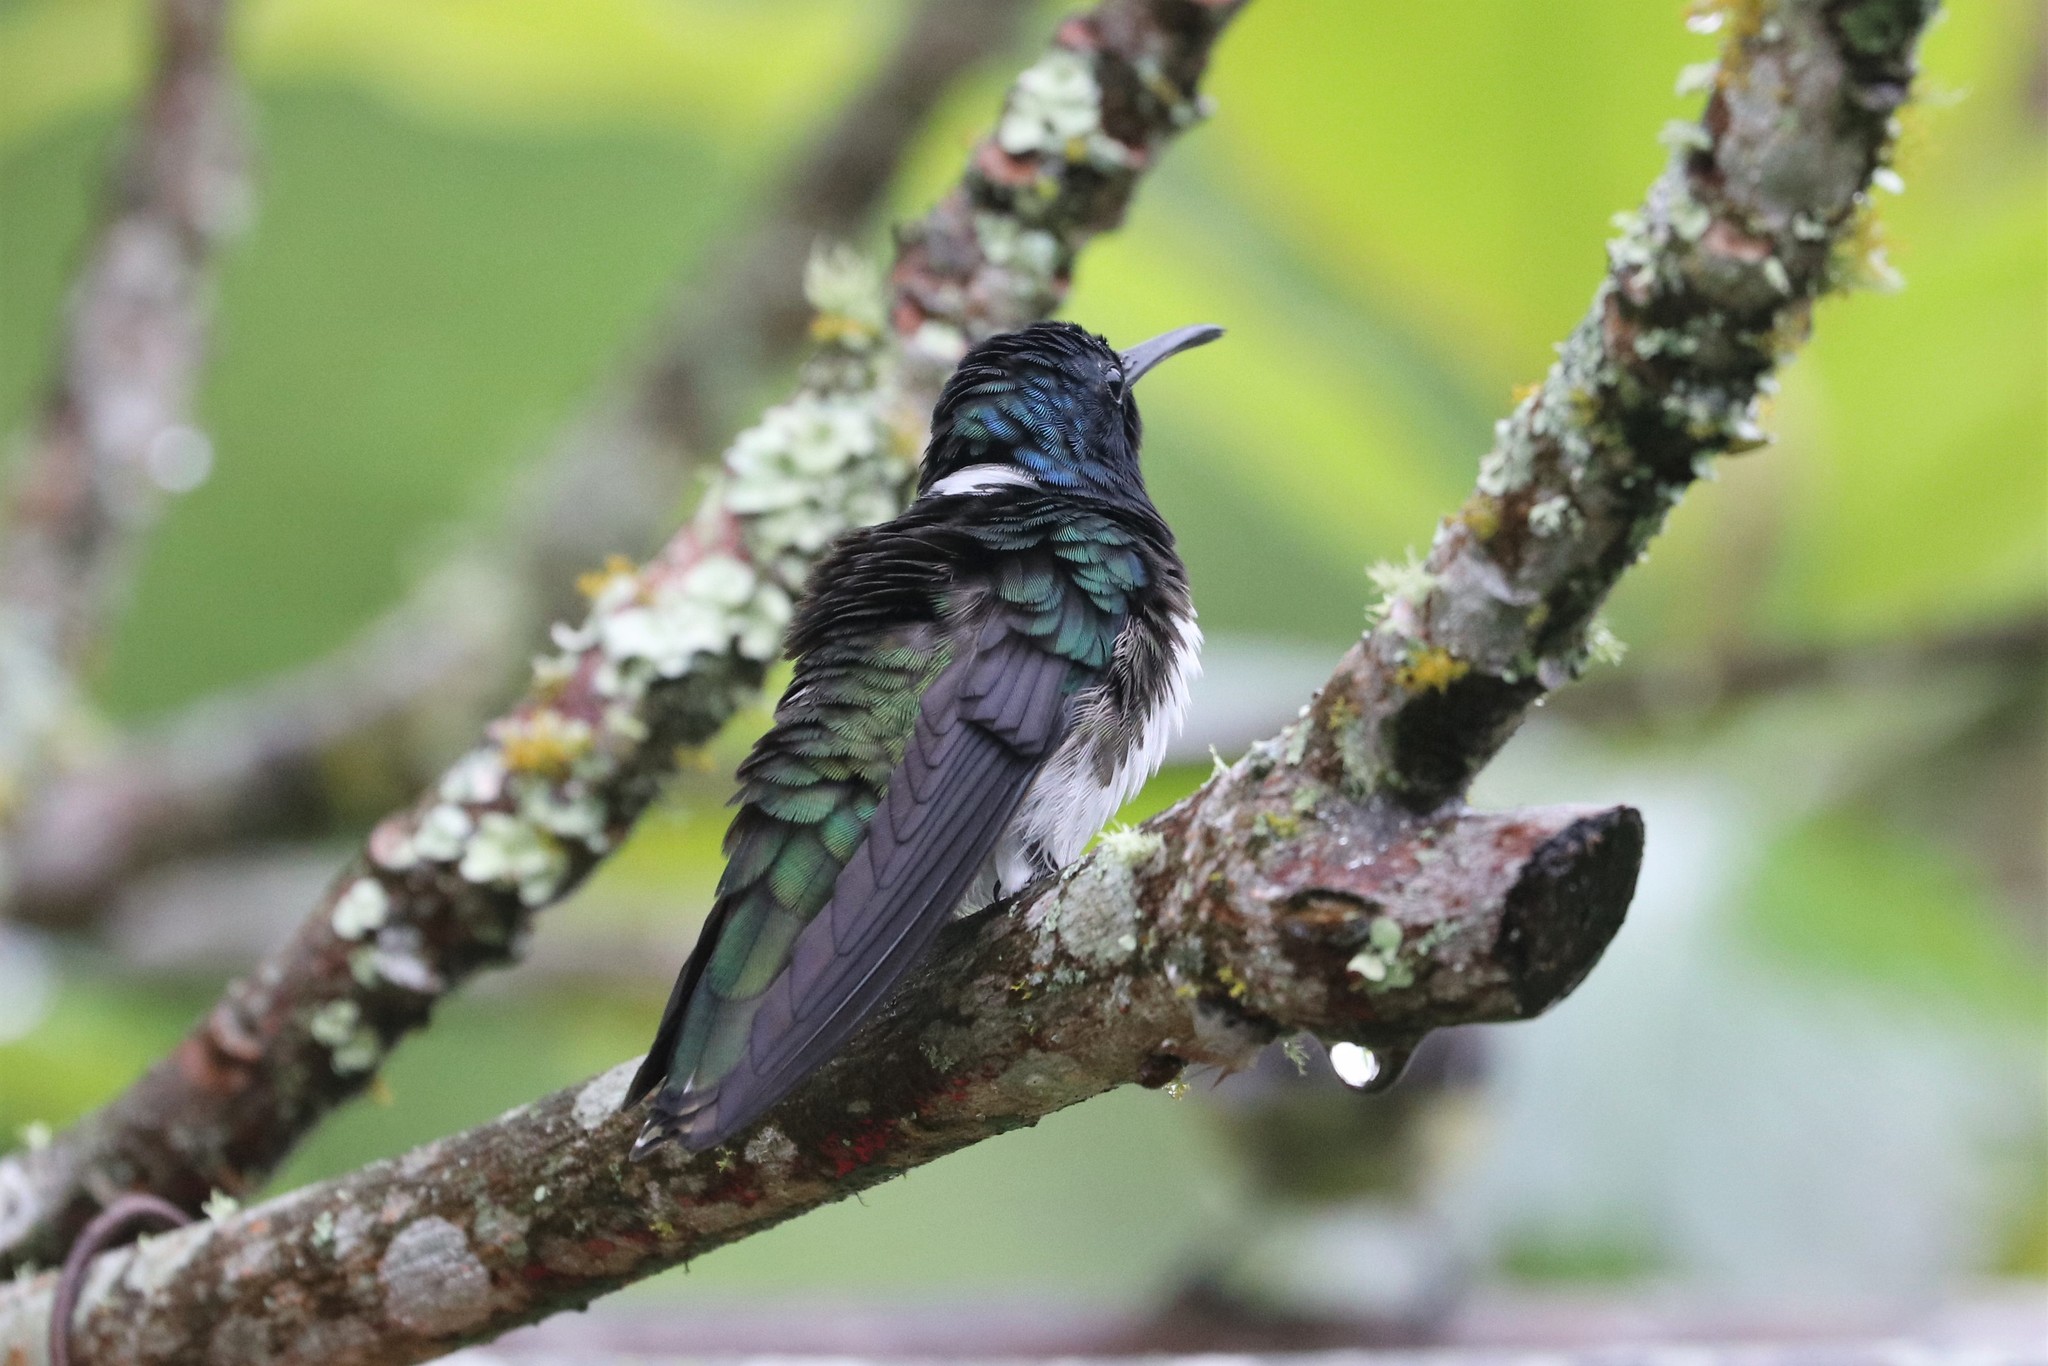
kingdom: Animalia
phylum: Chordata
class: Aves
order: Apodiformes
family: Trochilidae
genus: Florisuga
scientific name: Florisuga mellivora
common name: White-necked jacobin
